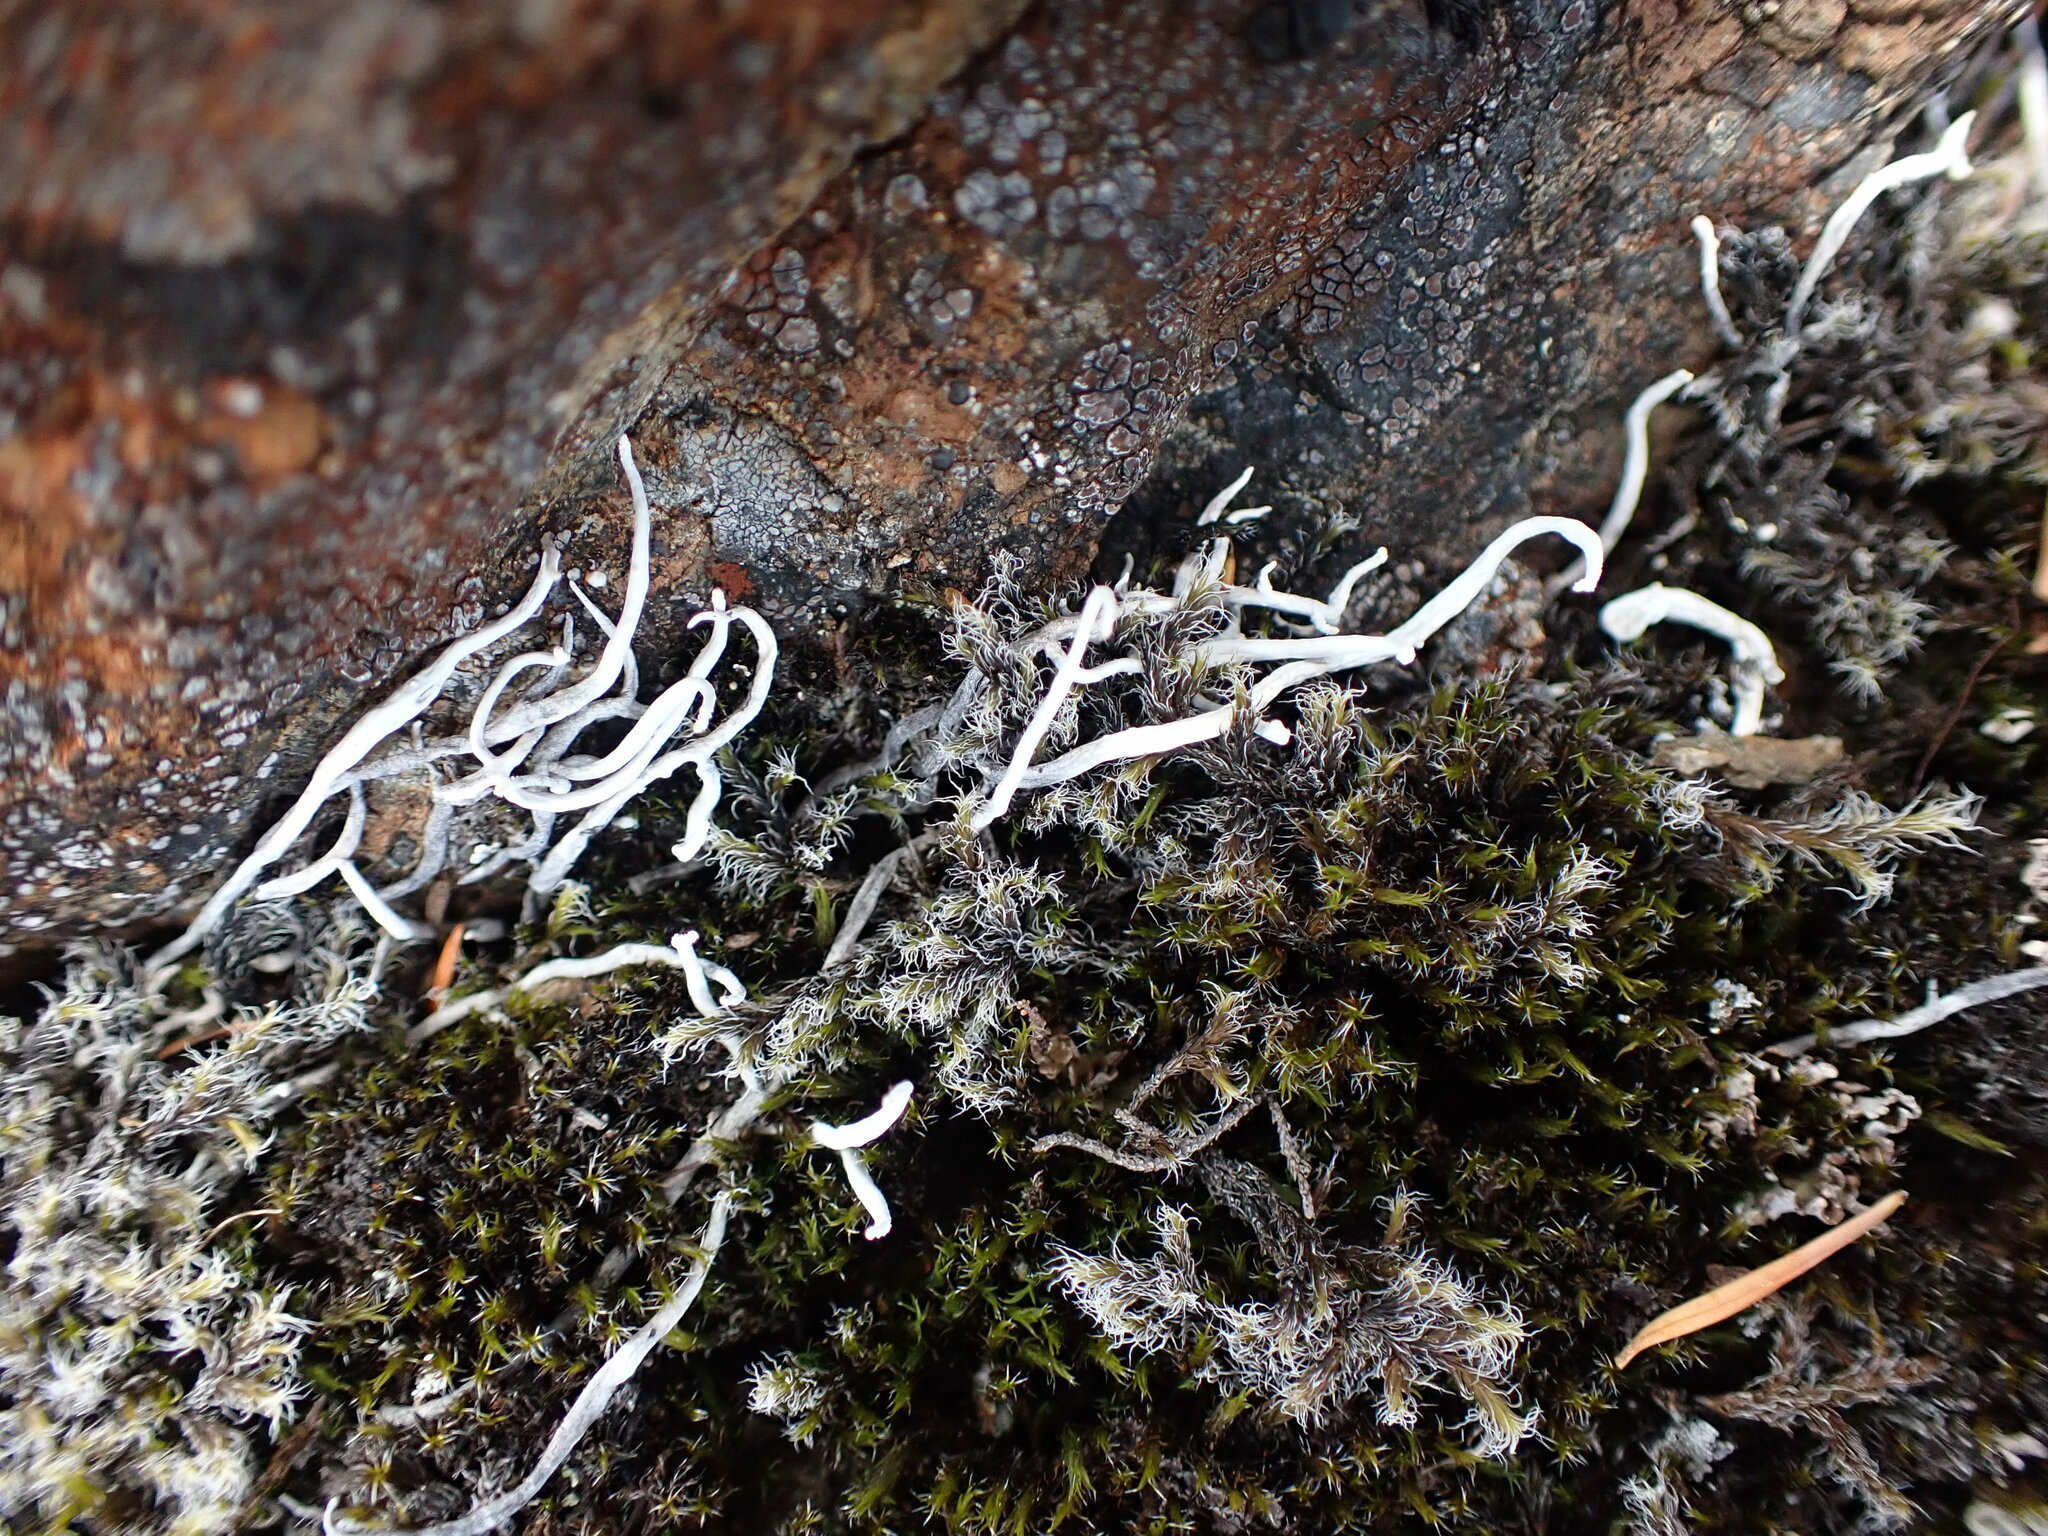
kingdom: Fungi
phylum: Ascomycota
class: Lecanoromycetes
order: Pertusariales
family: Icmadophilaceae
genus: Thamnolia
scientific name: Thamnolia vermicularis
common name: Whiteworm lichen
